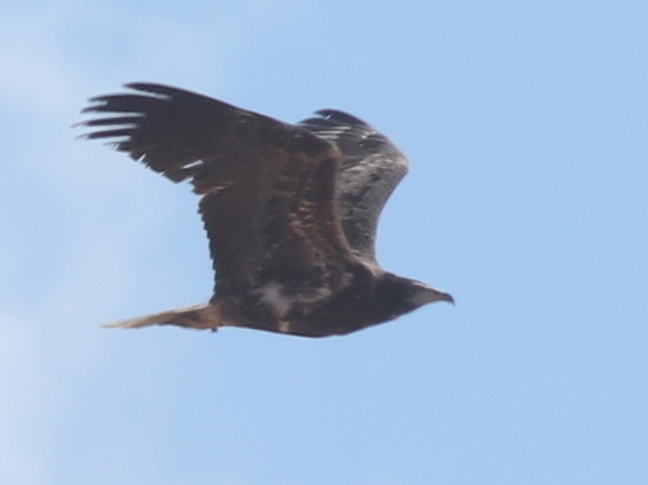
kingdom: Animalia
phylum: Chordata
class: Aves
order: Accipitriformes
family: Accipitridae
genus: Neophron
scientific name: Neophron percnopterus
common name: Egyptian vulture
